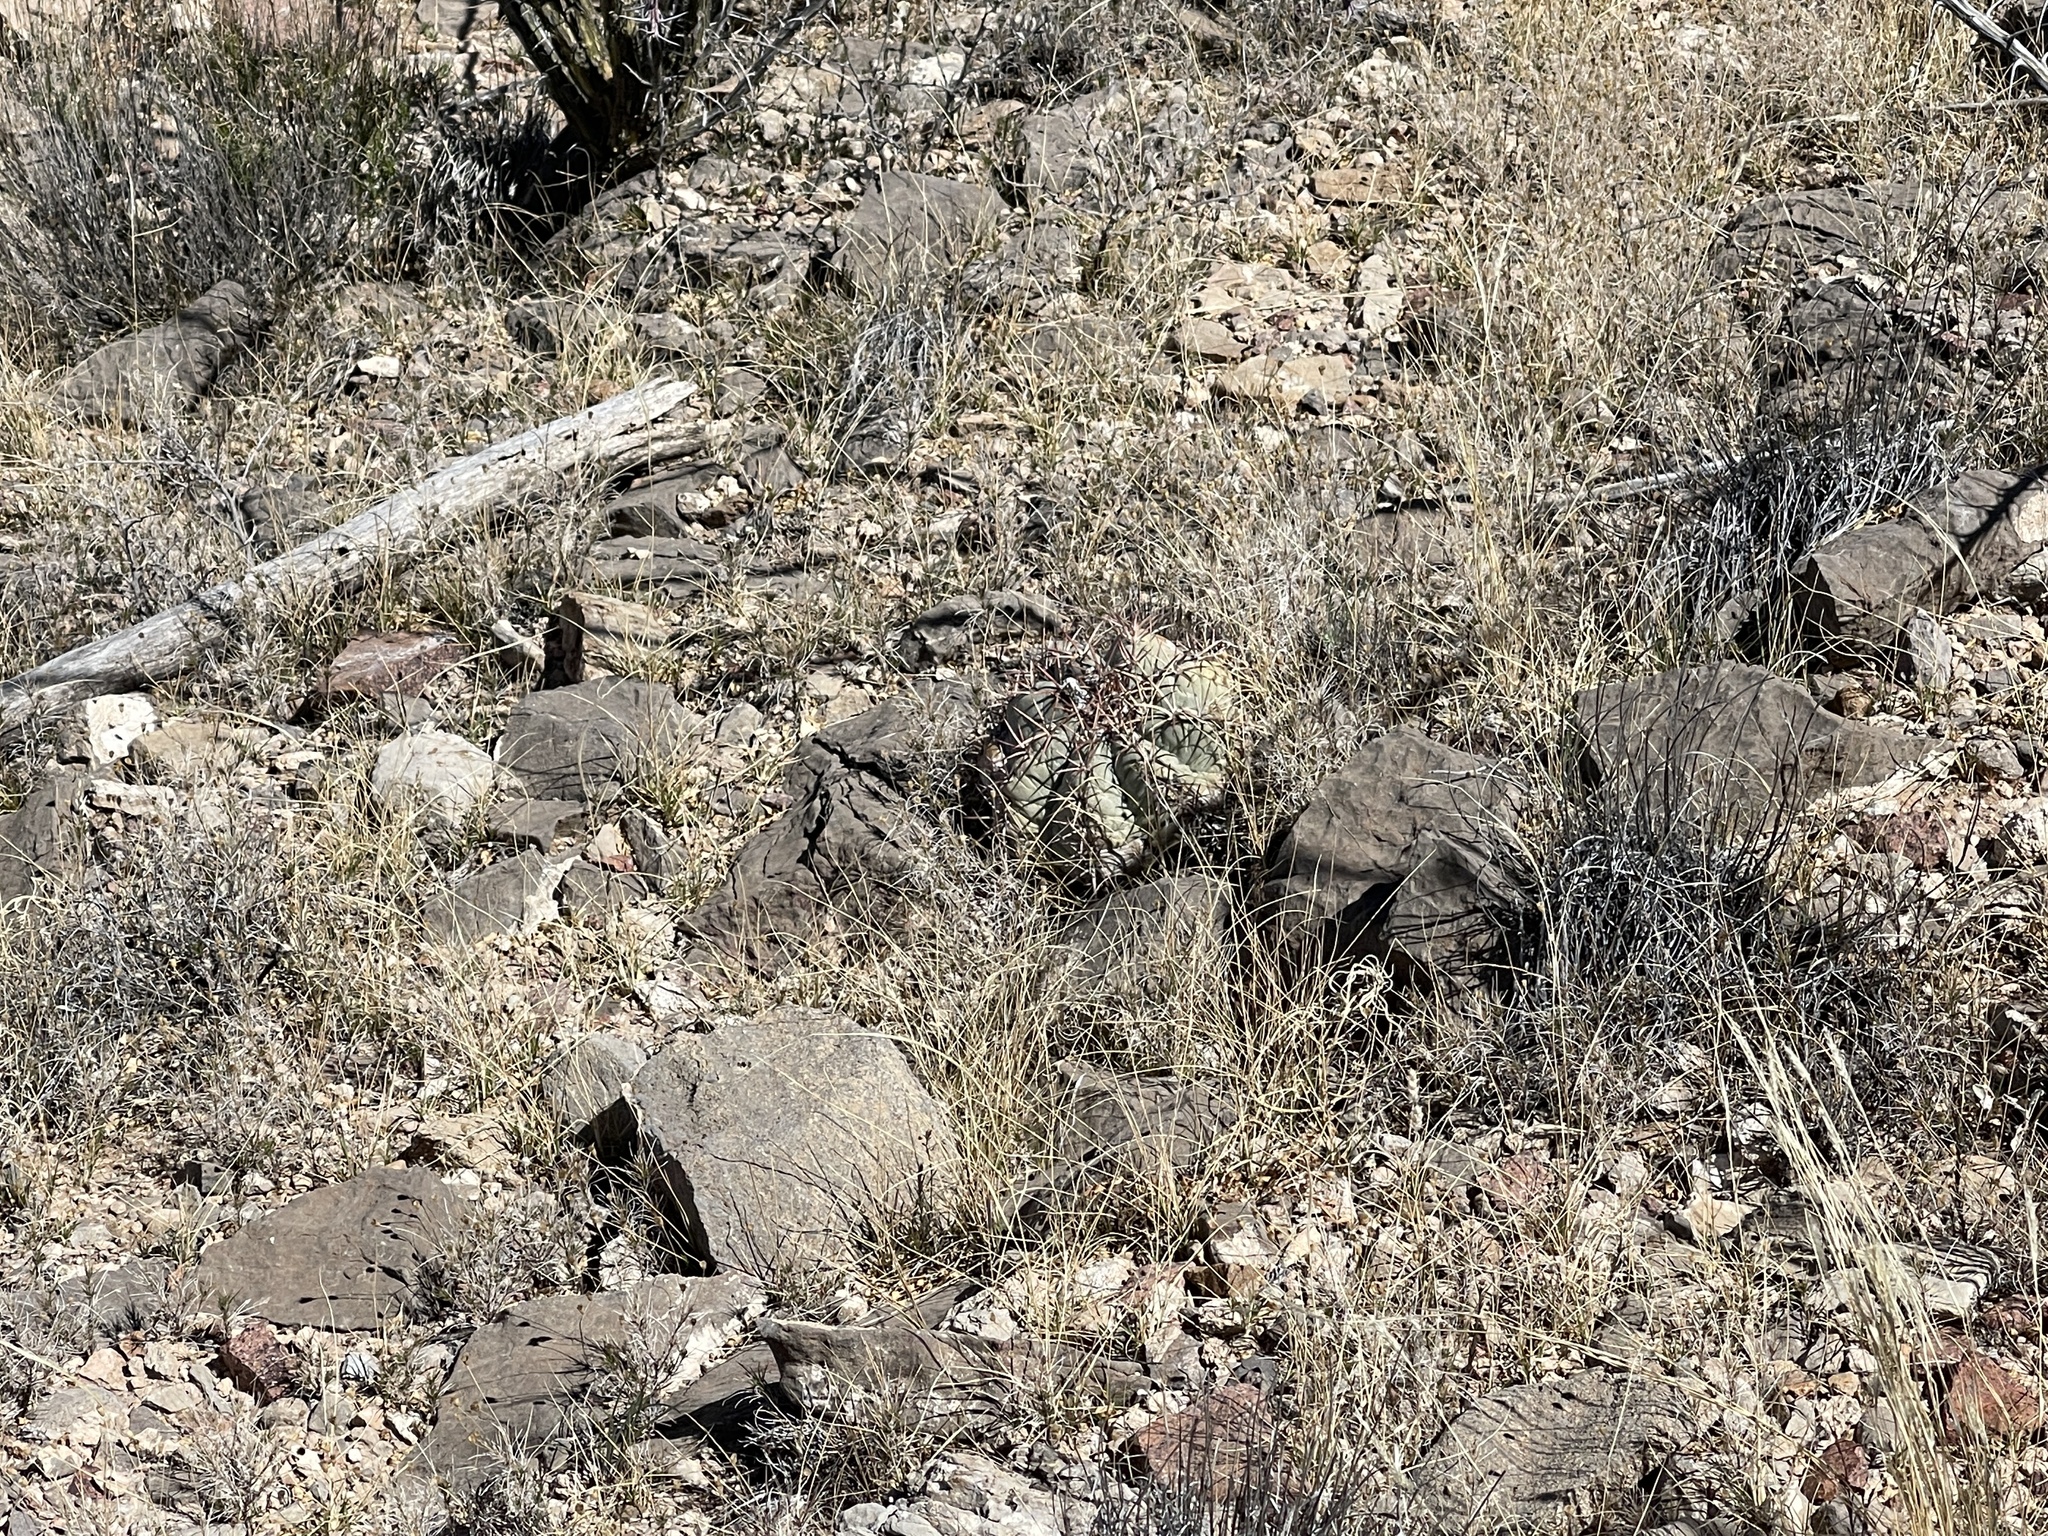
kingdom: Plantae
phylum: Tracheophyta
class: Magnoliopsida
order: Caryophyllales
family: Cactaceae
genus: Echinocactus
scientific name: Echinocactus horizonthalonius
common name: Devilshead
